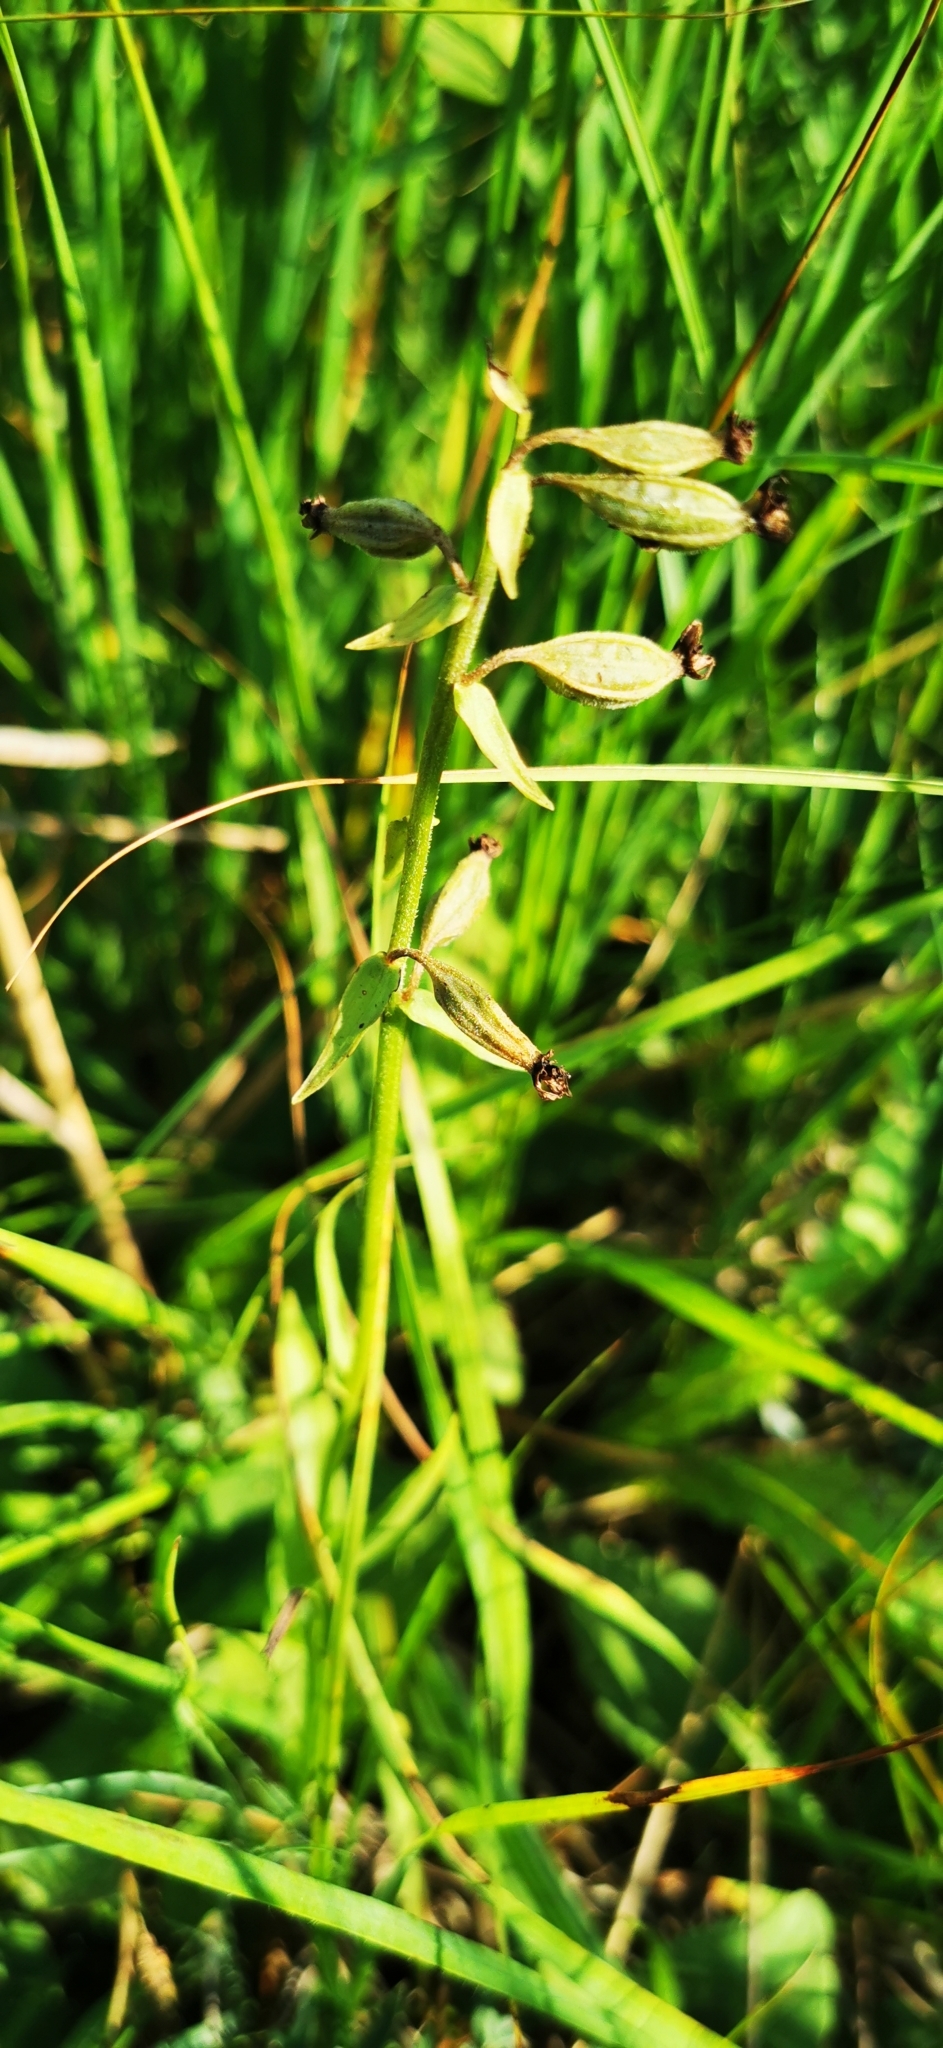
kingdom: Plantae
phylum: Tracheophyta
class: Liliopsida
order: Asparagales
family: Orchidaceae
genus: Epipactis
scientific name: Epipactis palustris
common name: Marsh helleborine
